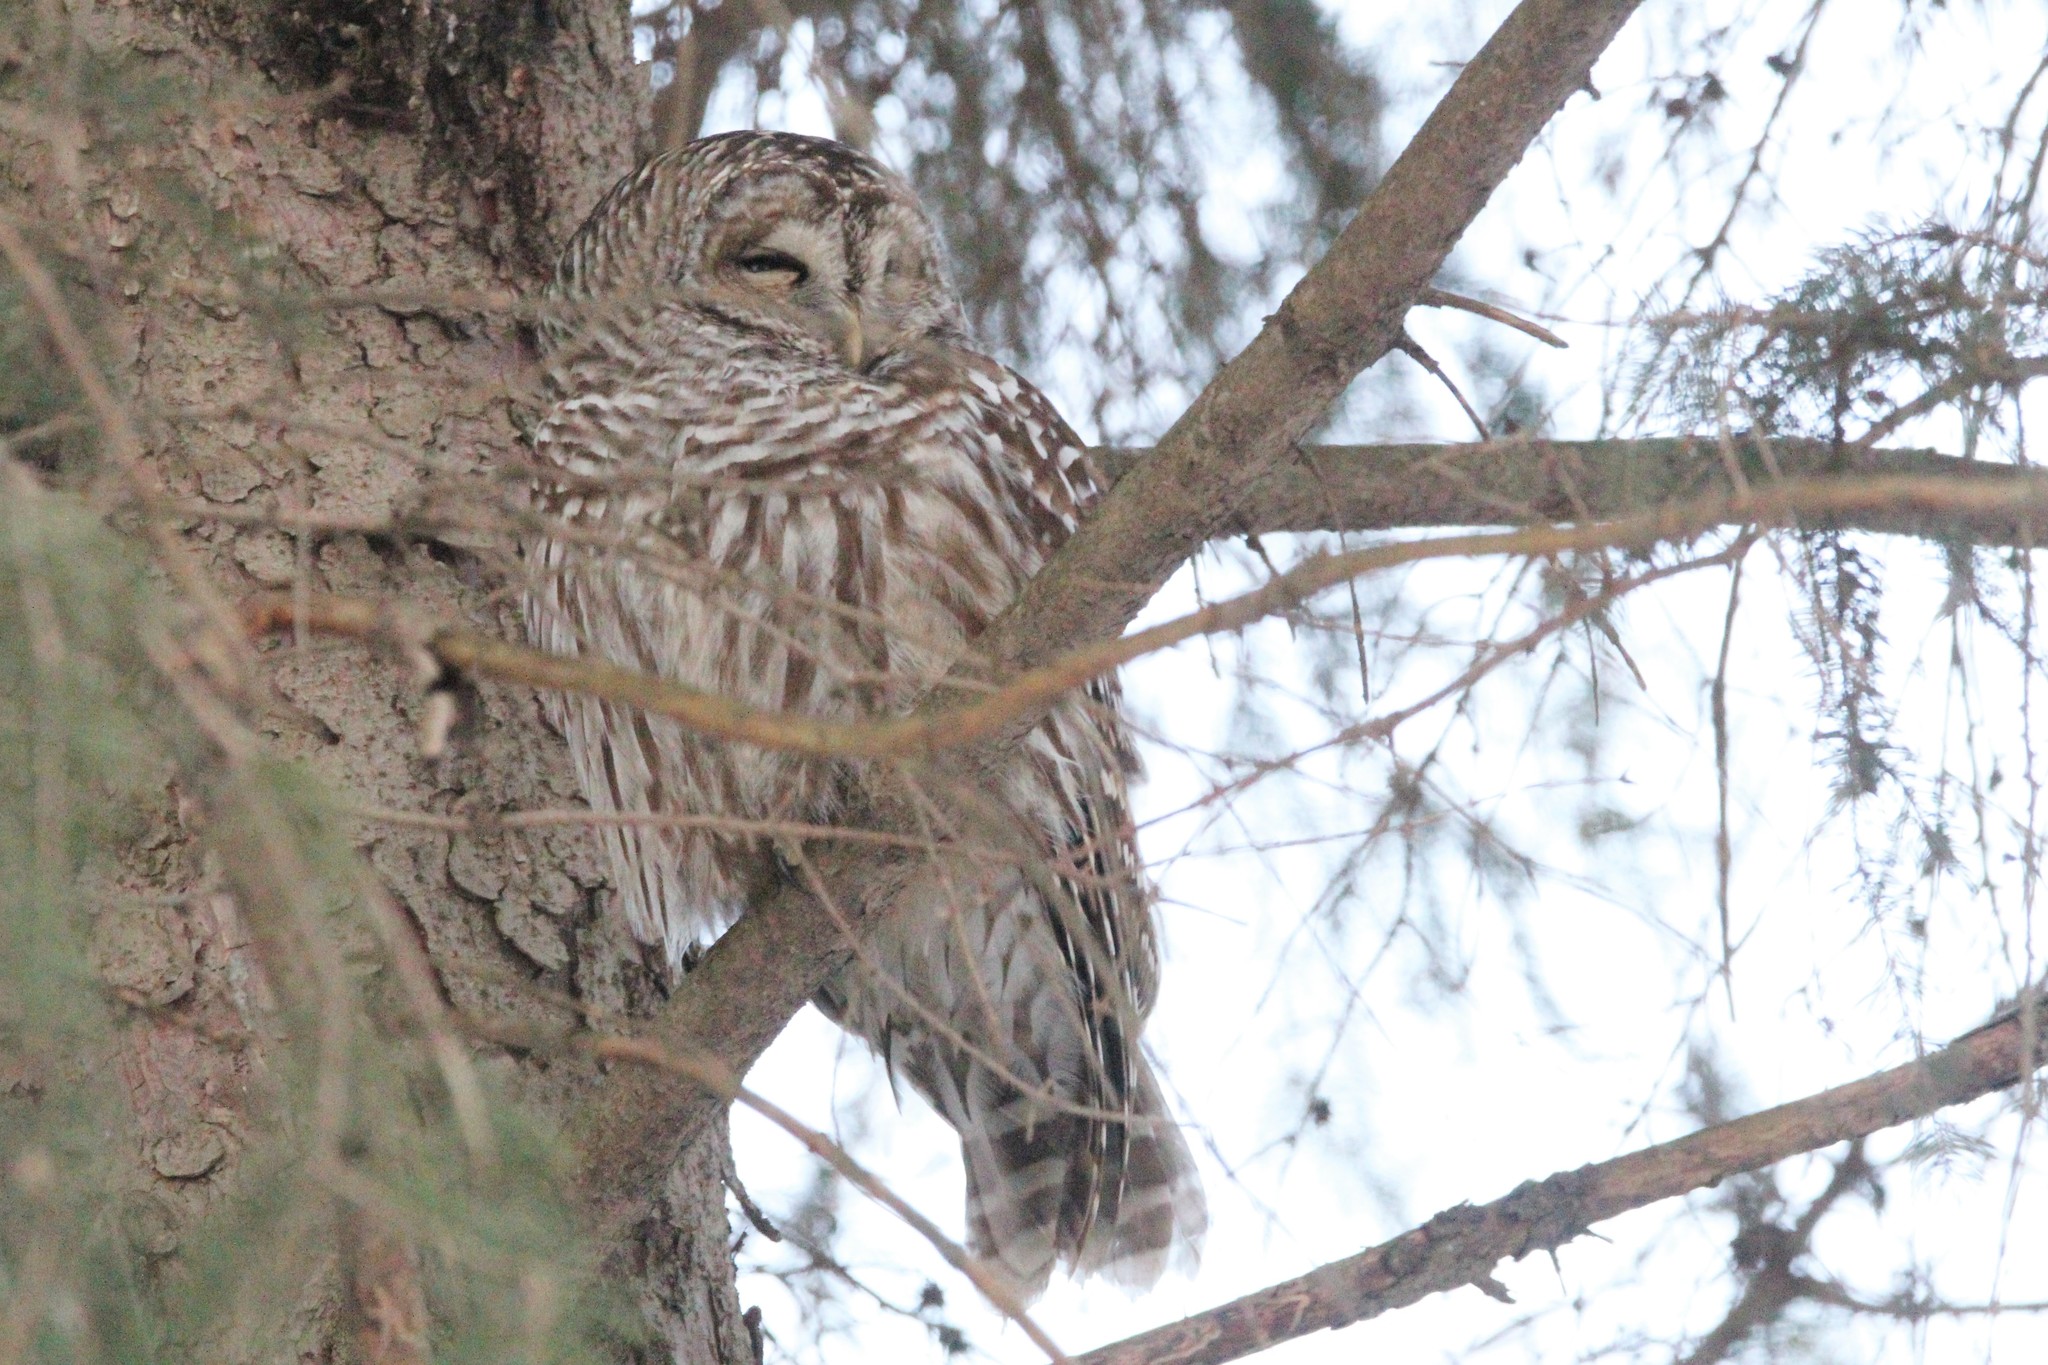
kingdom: Animalia
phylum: Chordata
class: Aves
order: Strigiformes
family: Strigidae
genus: Strix
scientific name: Strix varia
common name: Barred owl
